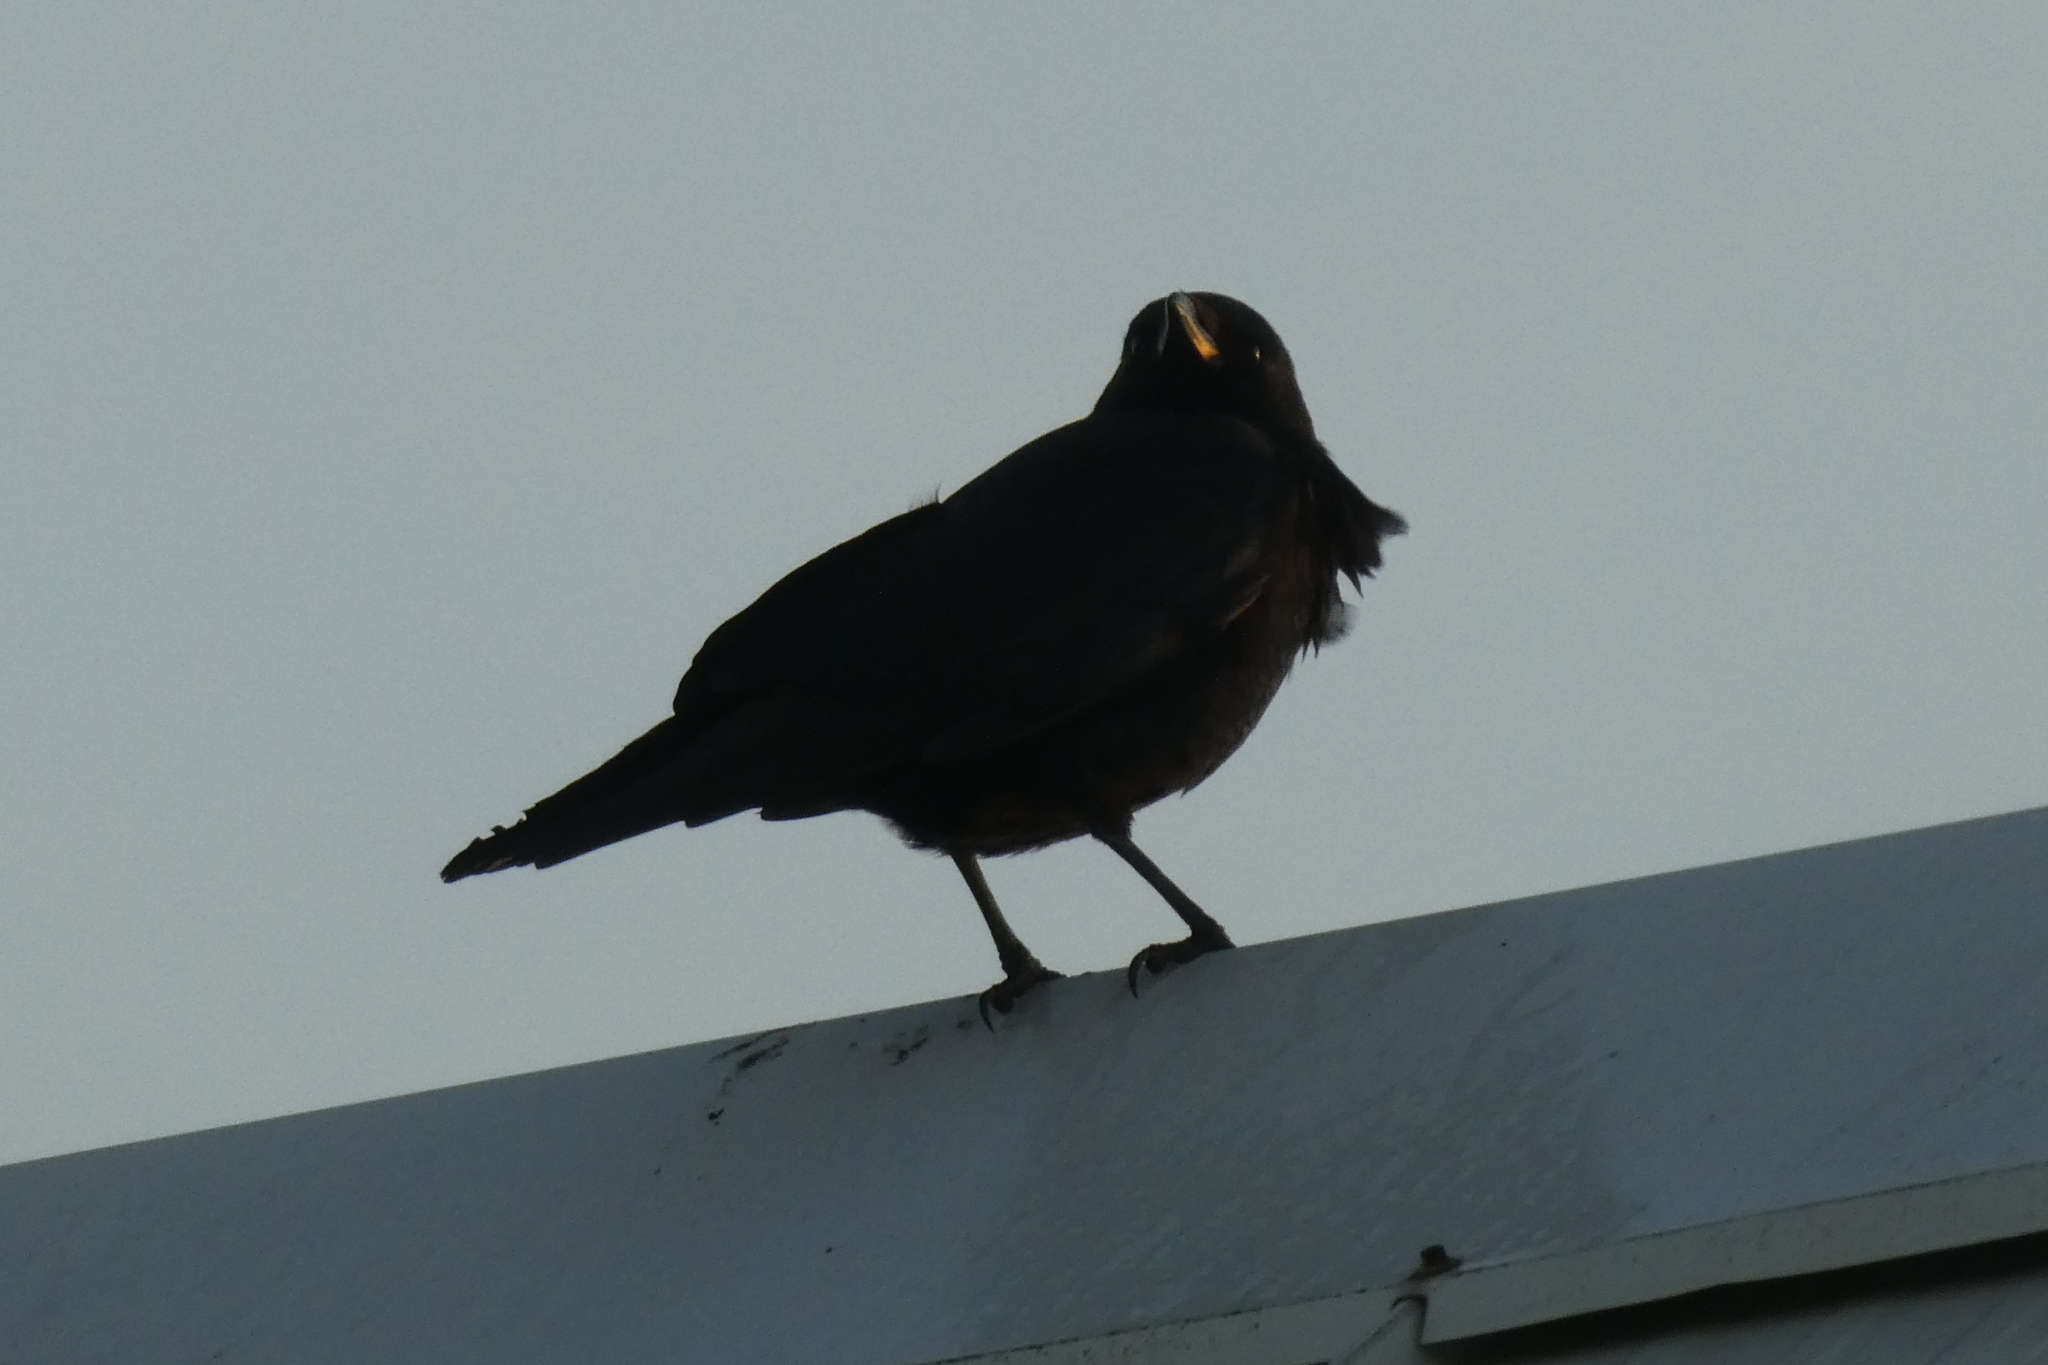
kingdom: Animalia
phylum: Chordata
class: Aves
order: Passeriformes
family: Corvidae
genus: Corvus
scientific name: Corvus brachyrhynchos
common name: American crow
